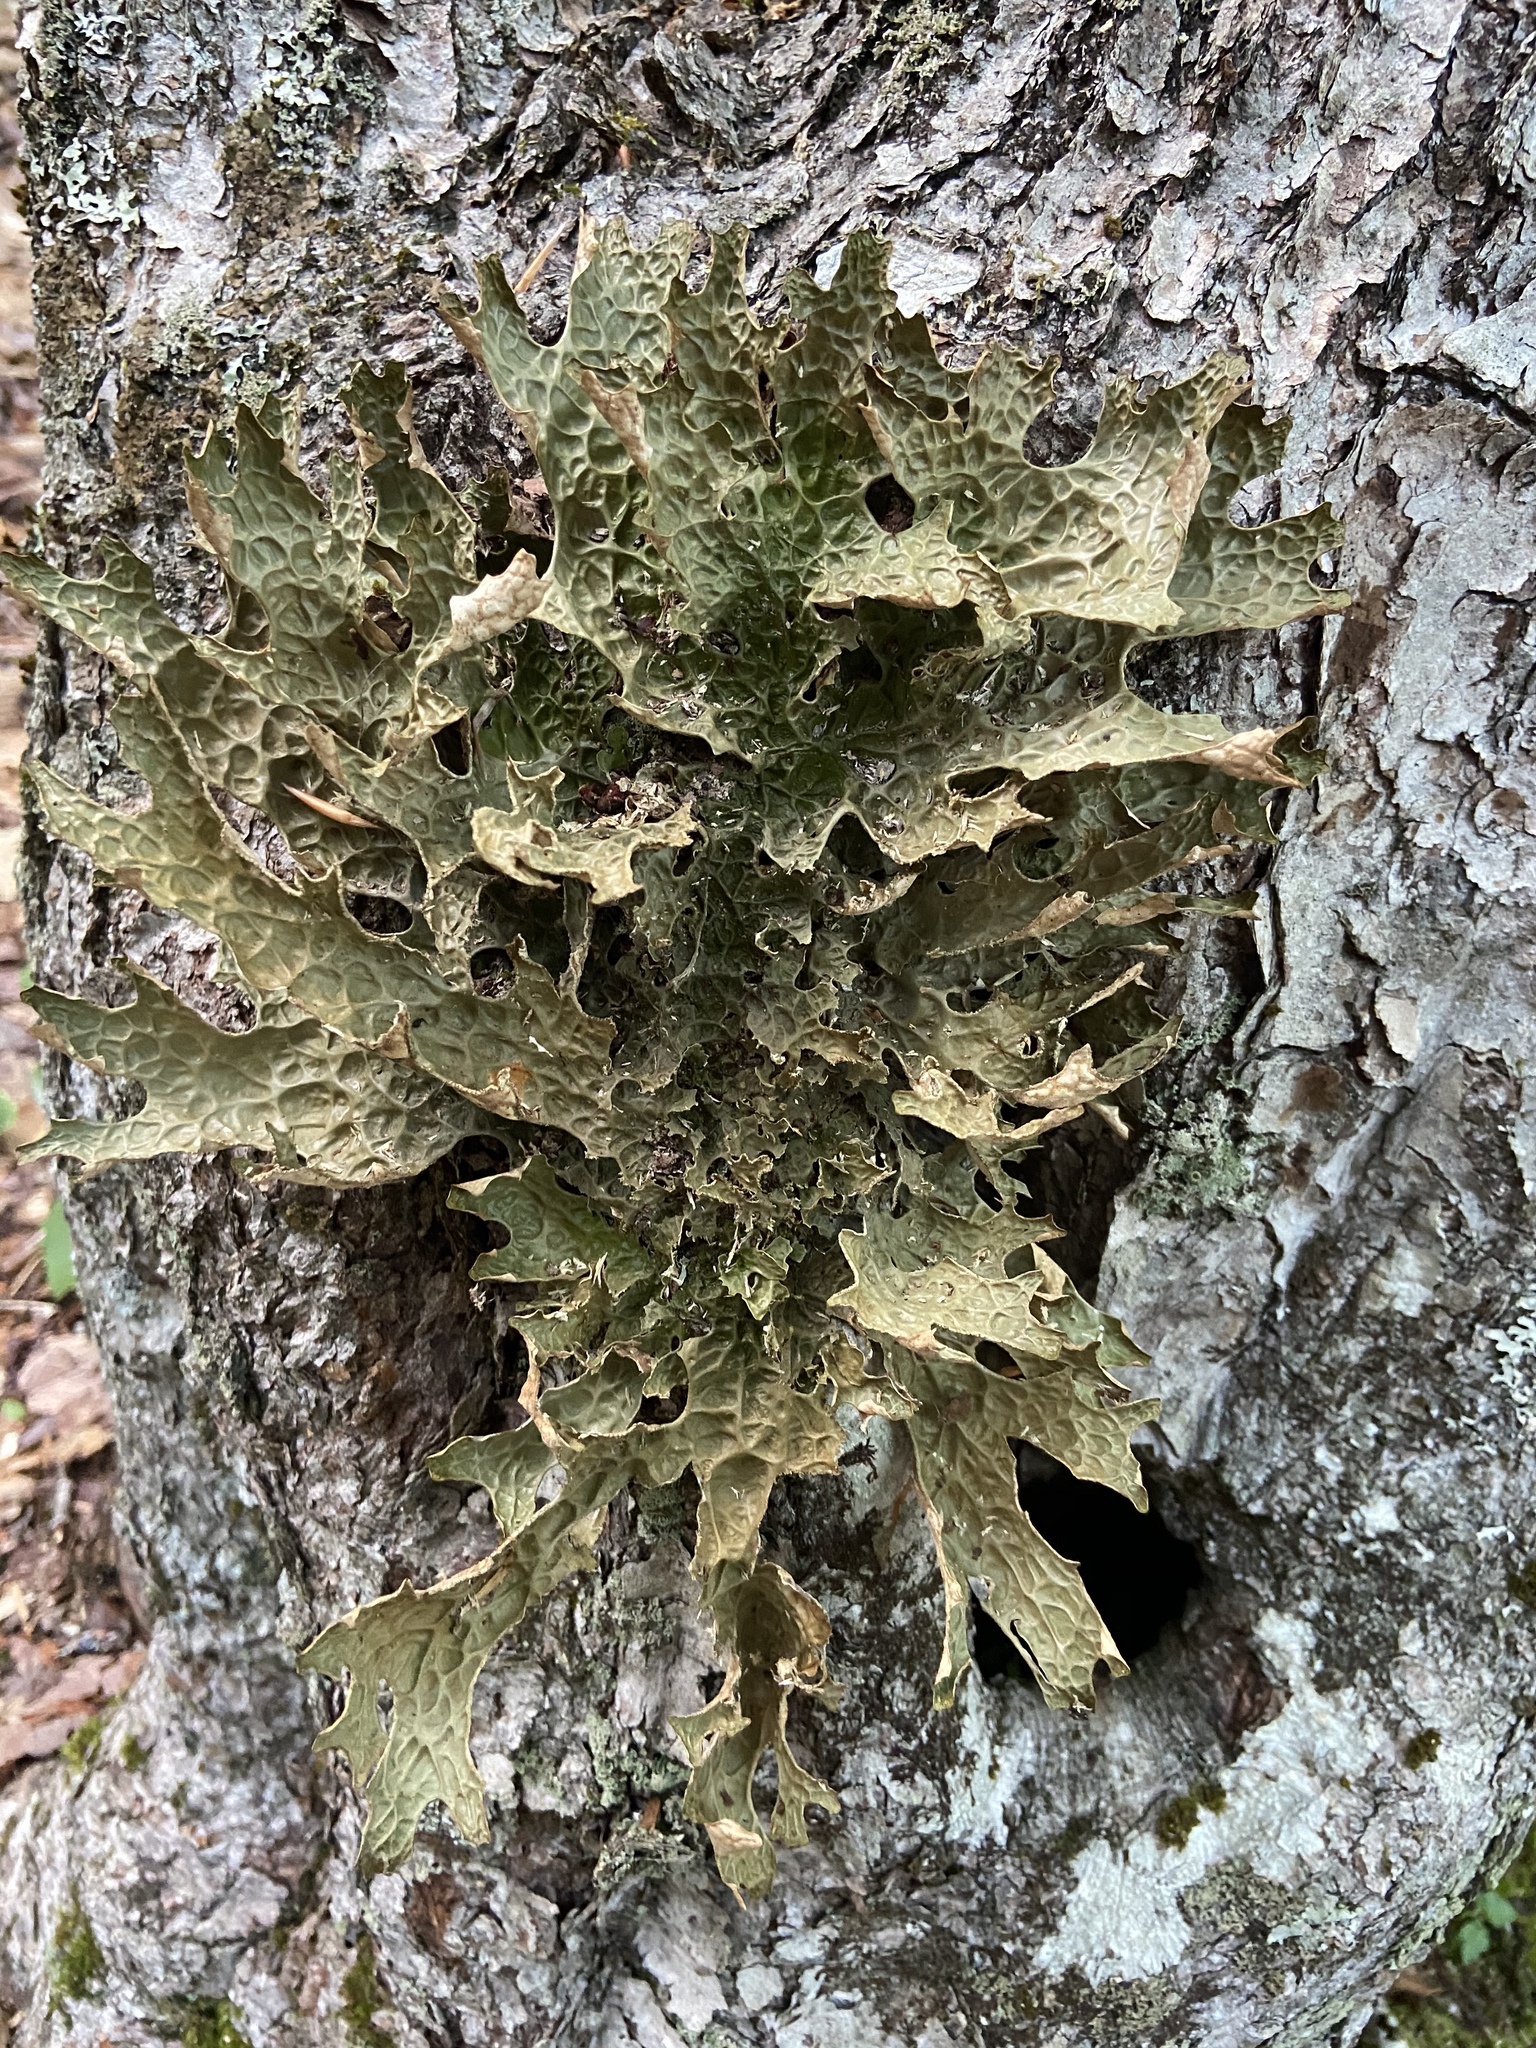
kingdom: Fungi
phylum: Ascomycota
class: Lecanoromycetes
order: Peltigerales
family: Lobariaceae
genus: Lobaria
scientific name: Lobaria pulmonaria
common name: Lungwort
